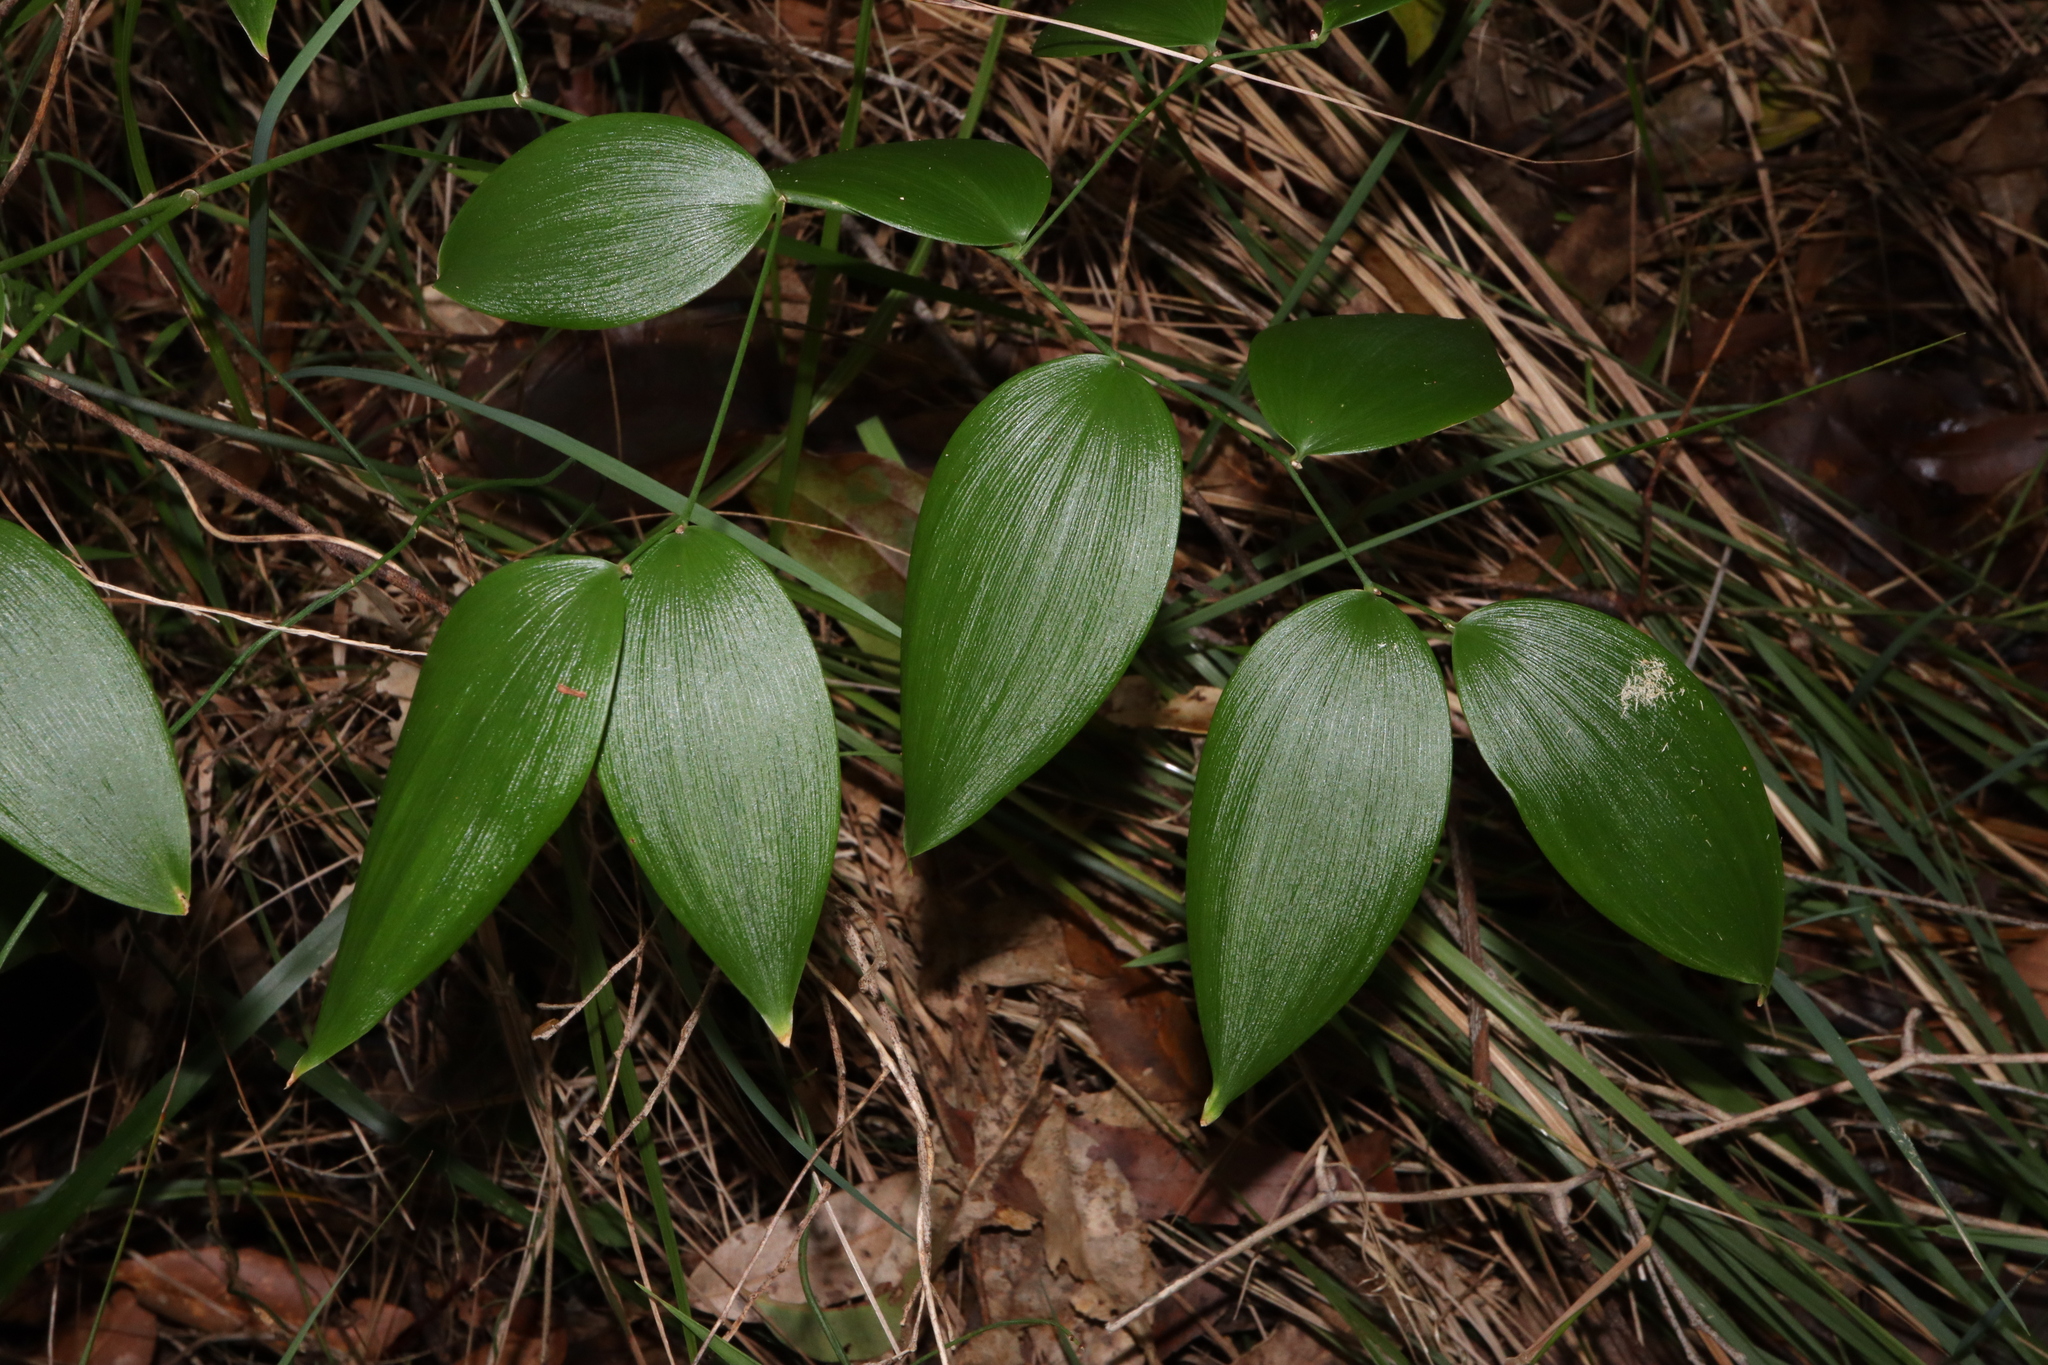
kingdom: Plantae
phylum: Tracheophyta
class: Liliopsida
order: Asparagales
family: Asparagaceae
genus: Eustrephus
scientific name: Eustrephus latifolius
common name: Orangevine
